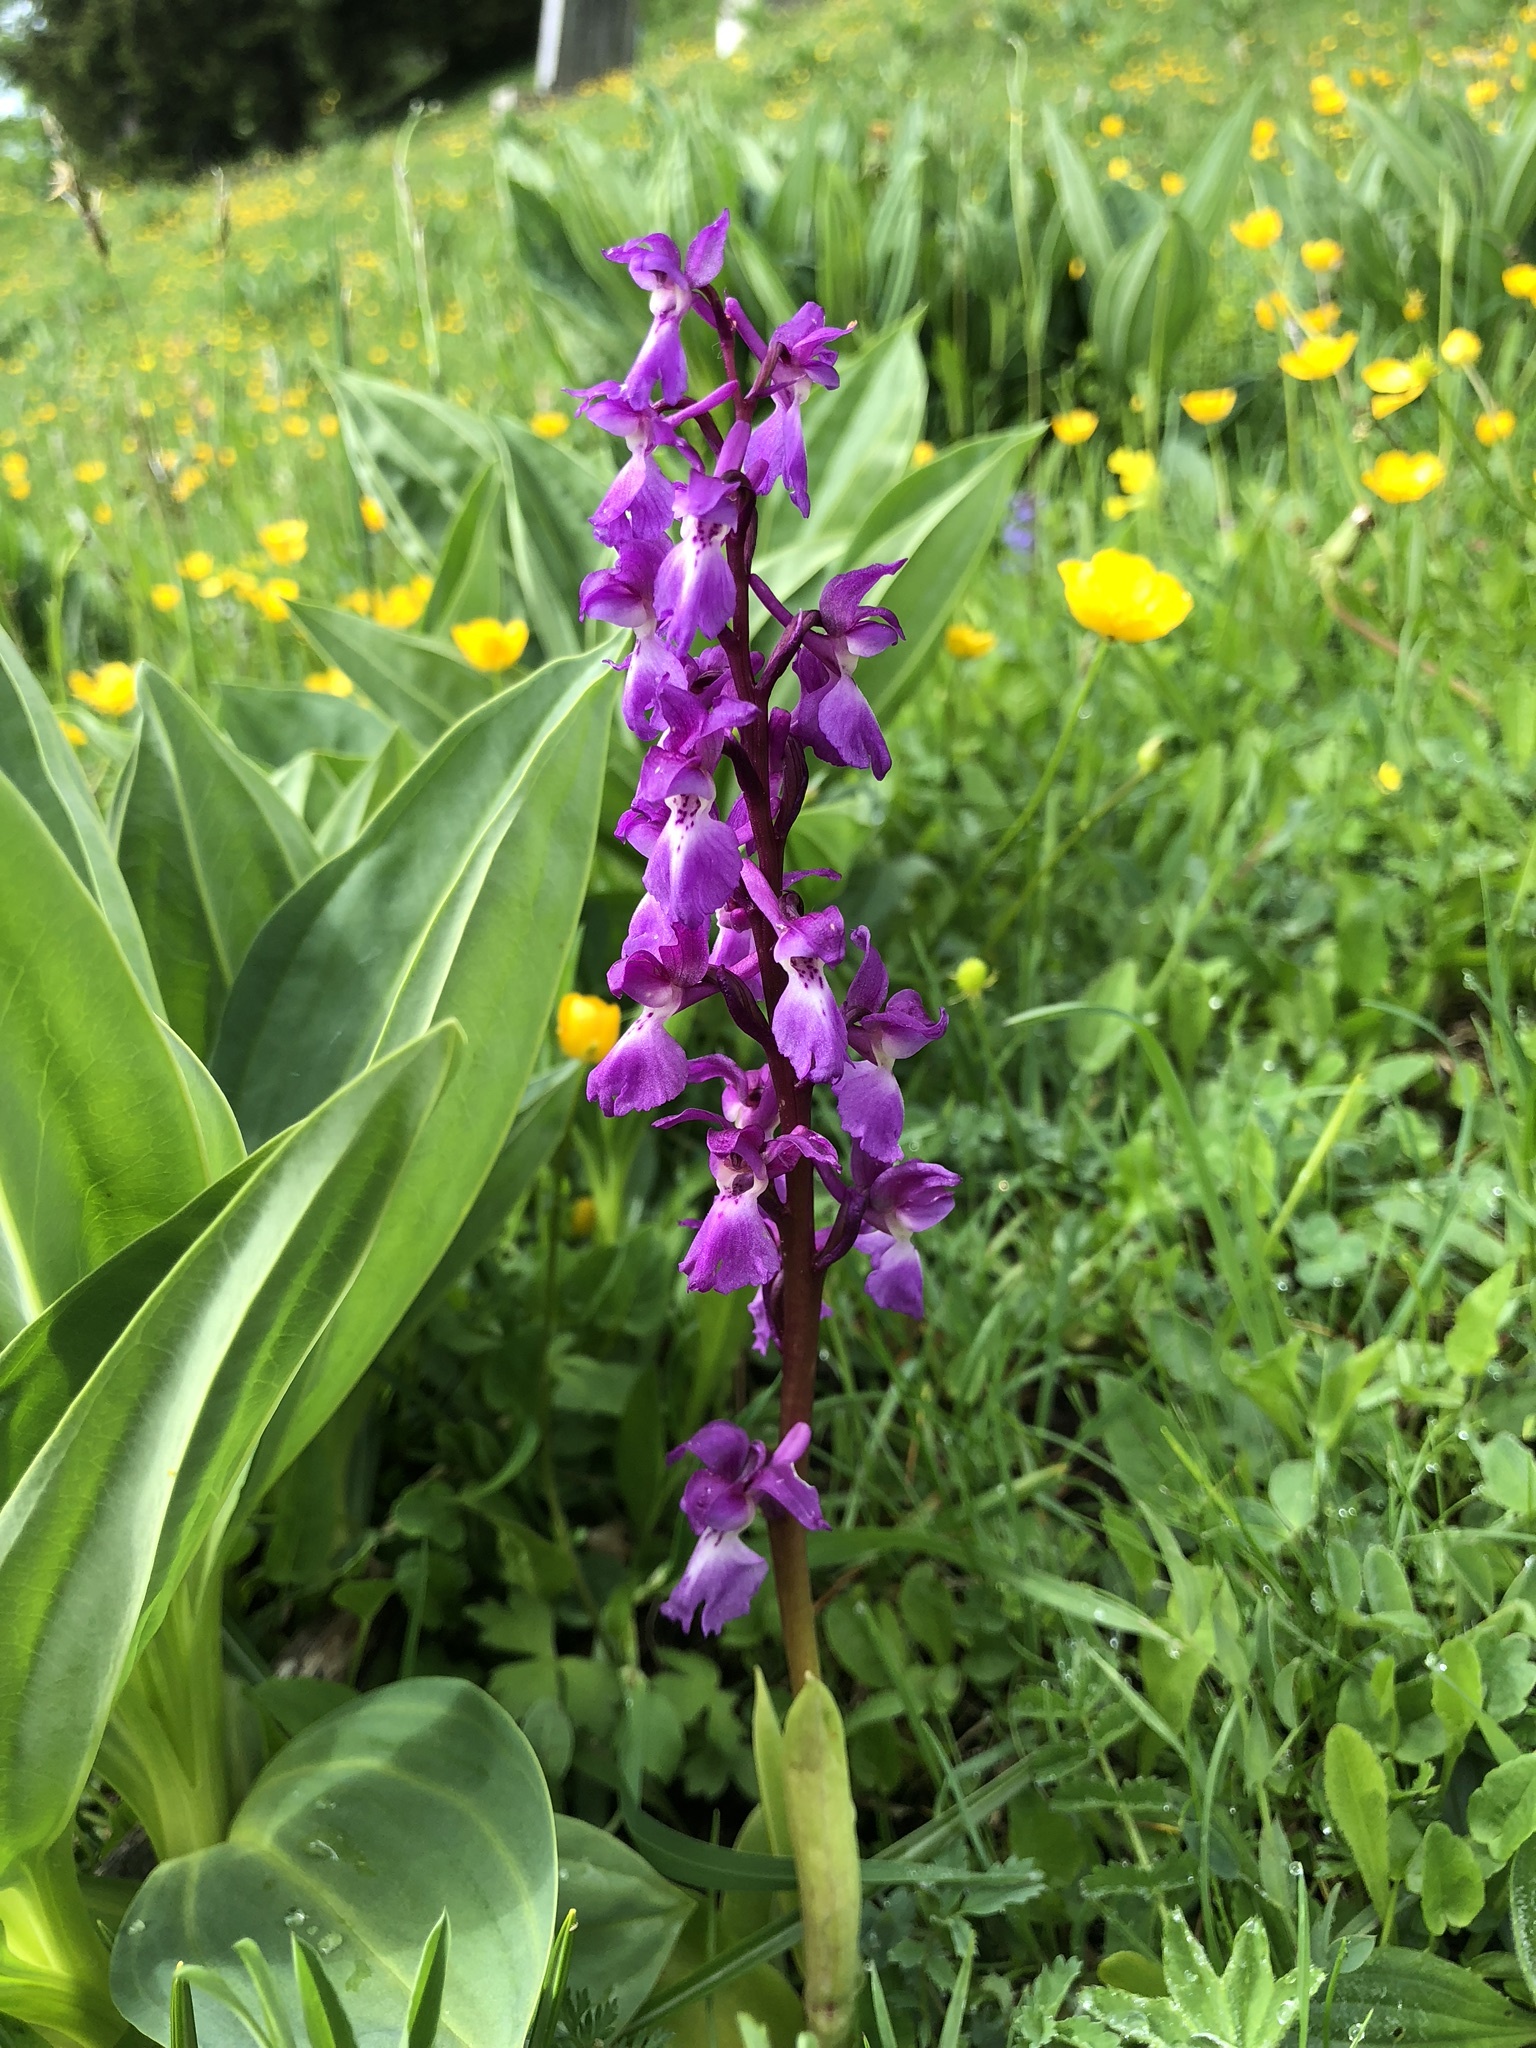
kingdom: Plantae
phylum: Tracheophyta
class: Liliopsida
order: Asparagales
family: Orchidaceae
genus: Orchis
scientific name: Orchis mascula
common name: Early-purple orchid
